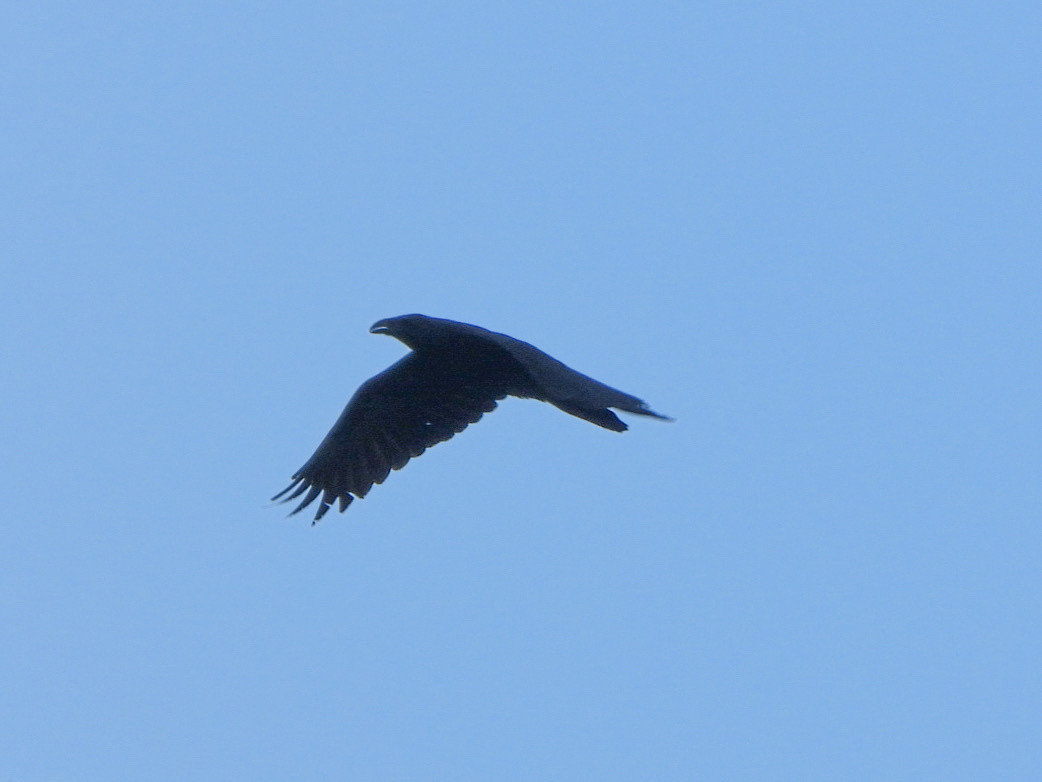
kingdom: Animalia
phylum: Chordata
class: Aves
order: Passeriformes
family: Corvidae
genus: Corvus
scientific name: Corvus corax
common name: Common raven
